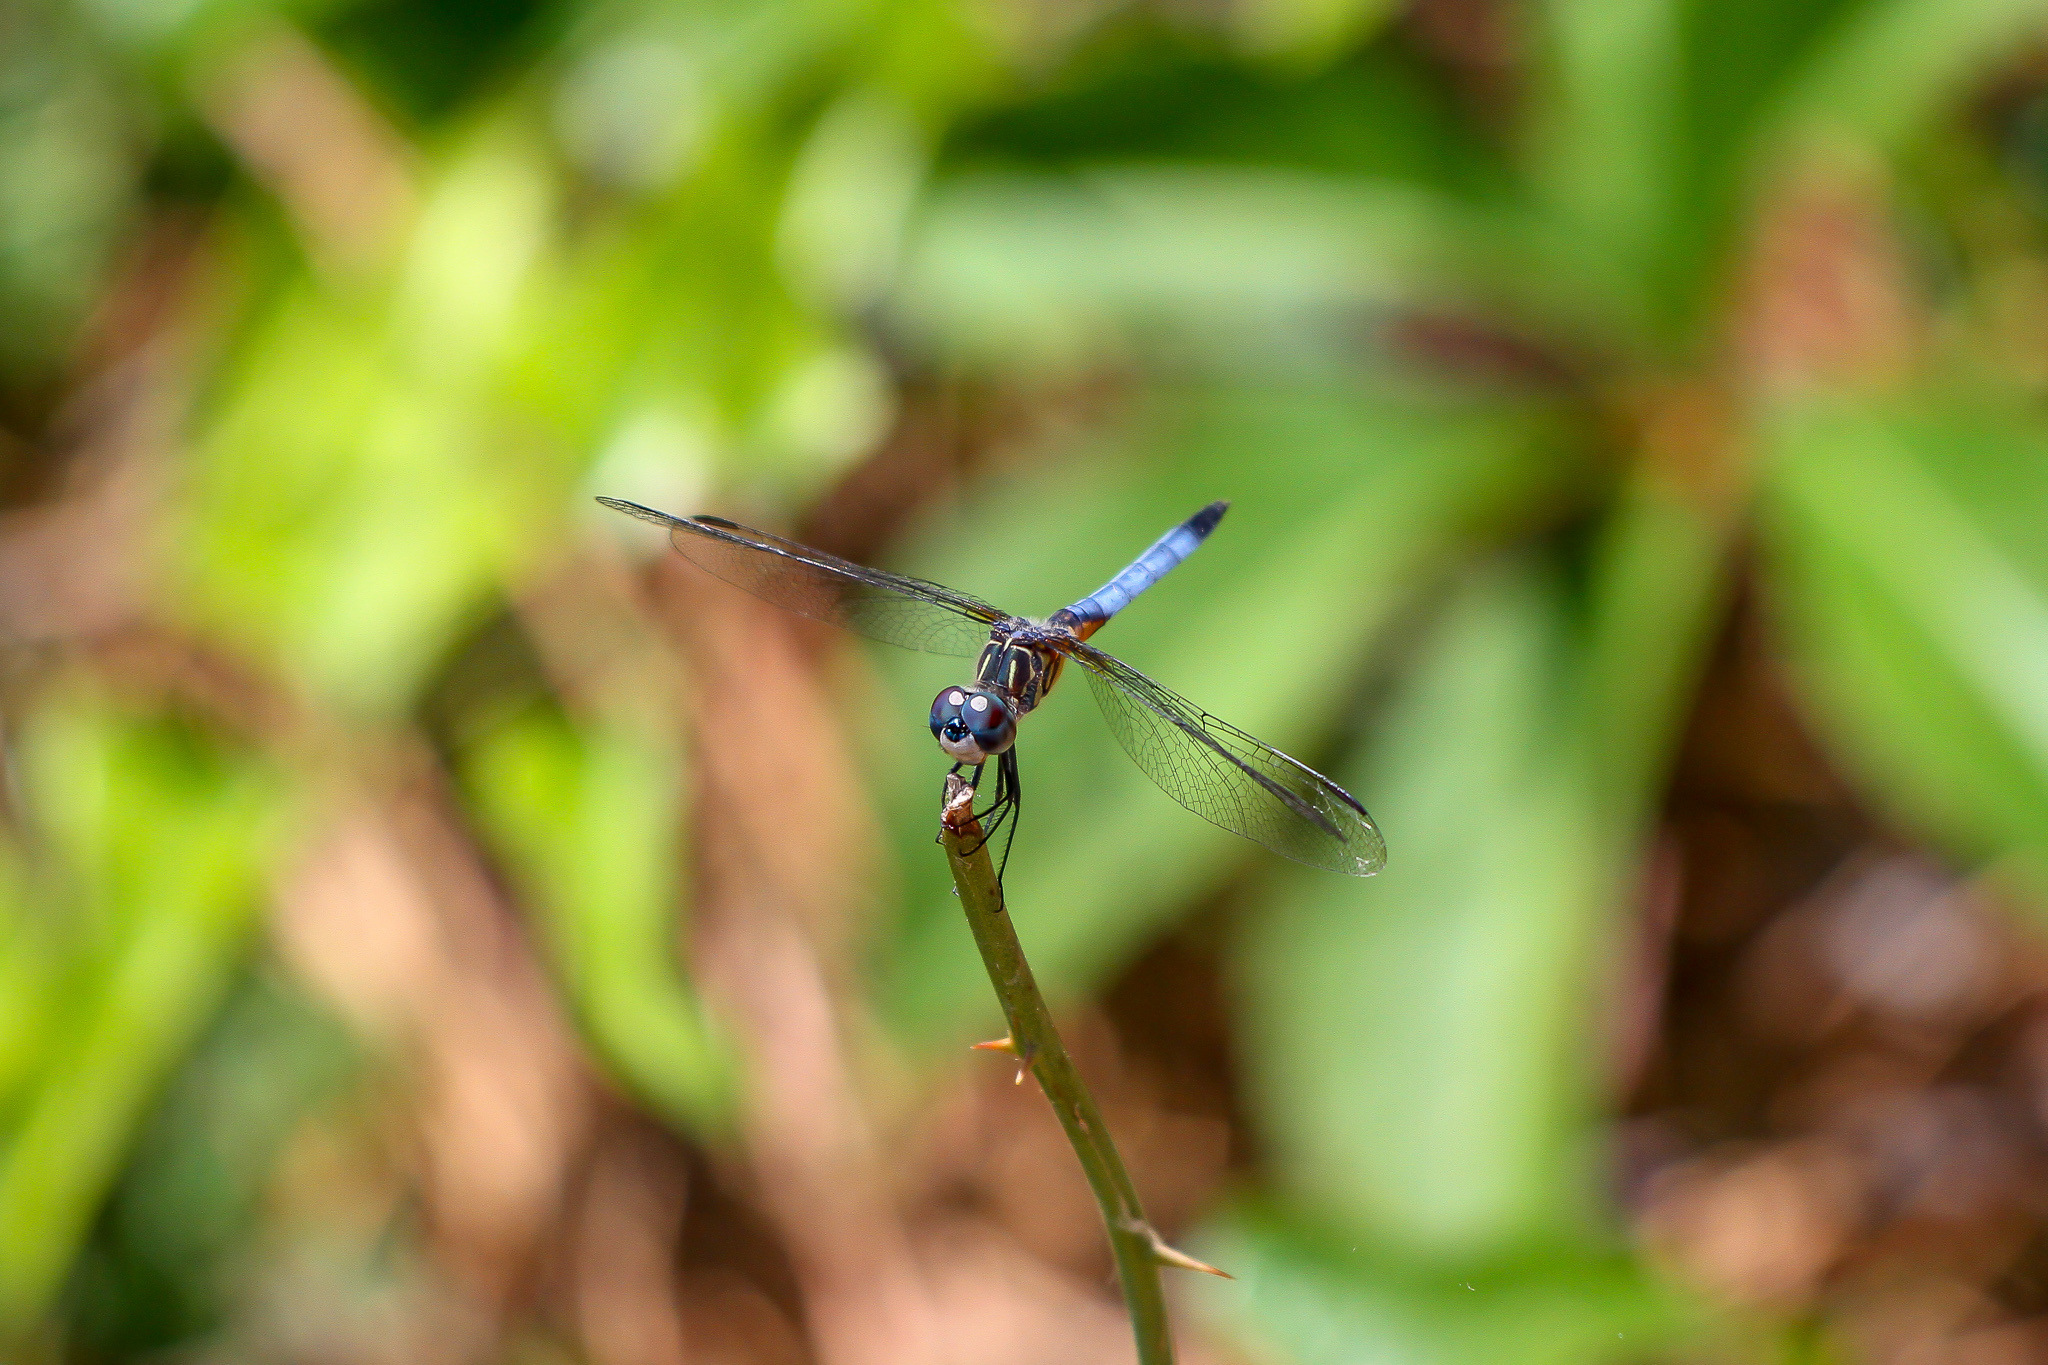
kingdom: Animalia
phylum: Arthropoda
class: Insecta
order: Odonata
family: Libellulidae
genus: Pachydiplax
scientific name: Pachydiplax longipennis
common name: Blue dasher
